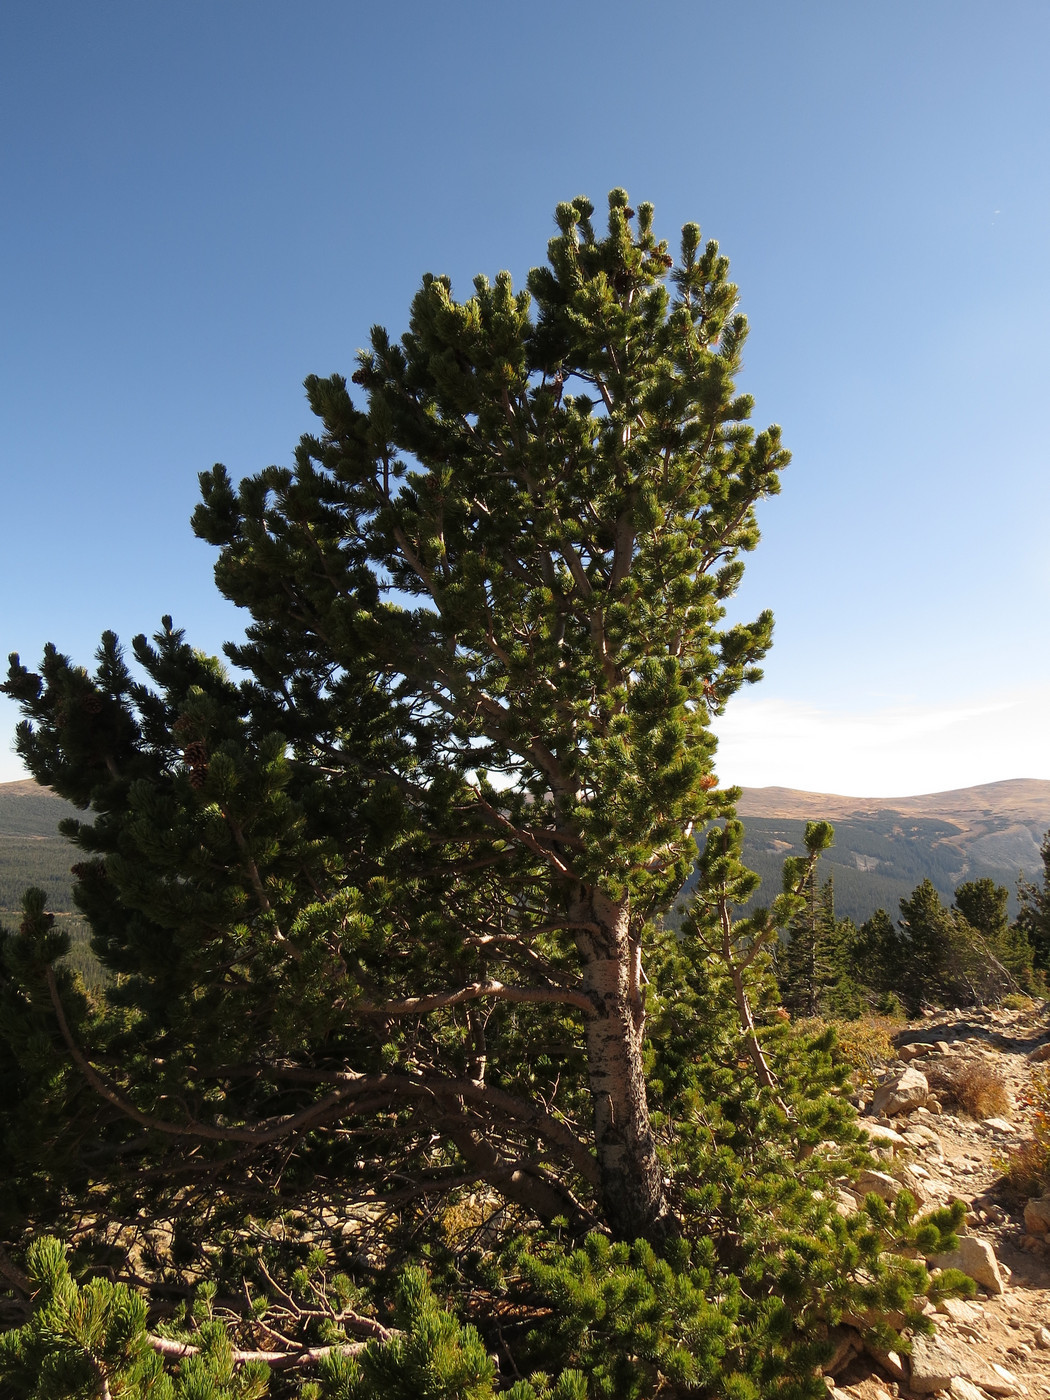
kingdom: Plantae
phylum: Tracheophyta
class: Pinopsida
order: Pinales
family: Pinaceae
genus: Pinus
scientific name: Pinus flexilis
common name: Limber pine
